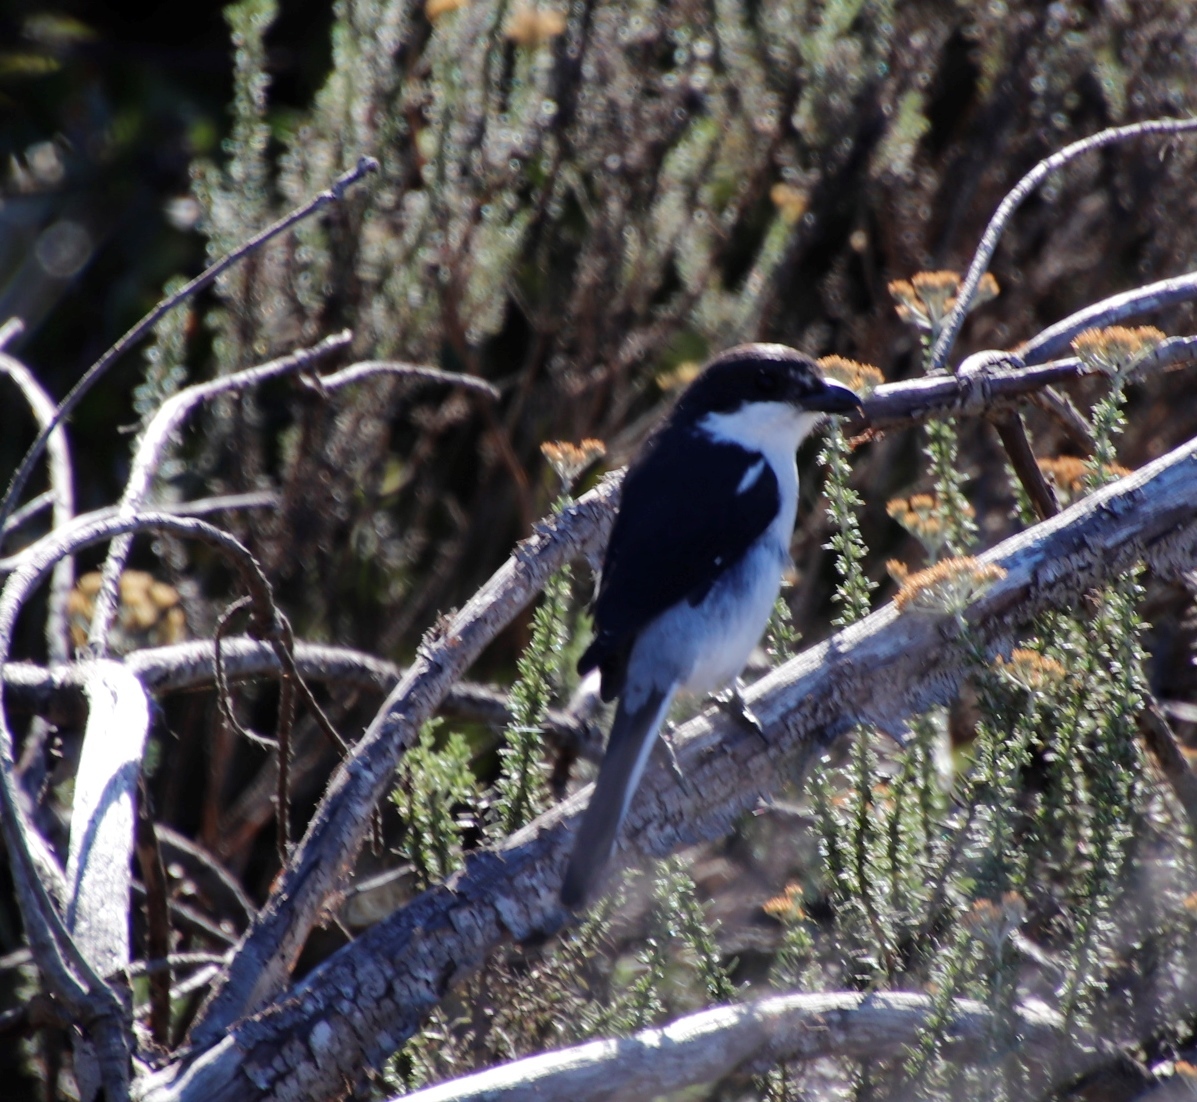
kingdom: Animalia
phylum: Chordata
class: Aves
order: Passeriformes
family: Laniidae
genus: Lanius
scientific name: Lanius collaris
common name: Southern fiscal
